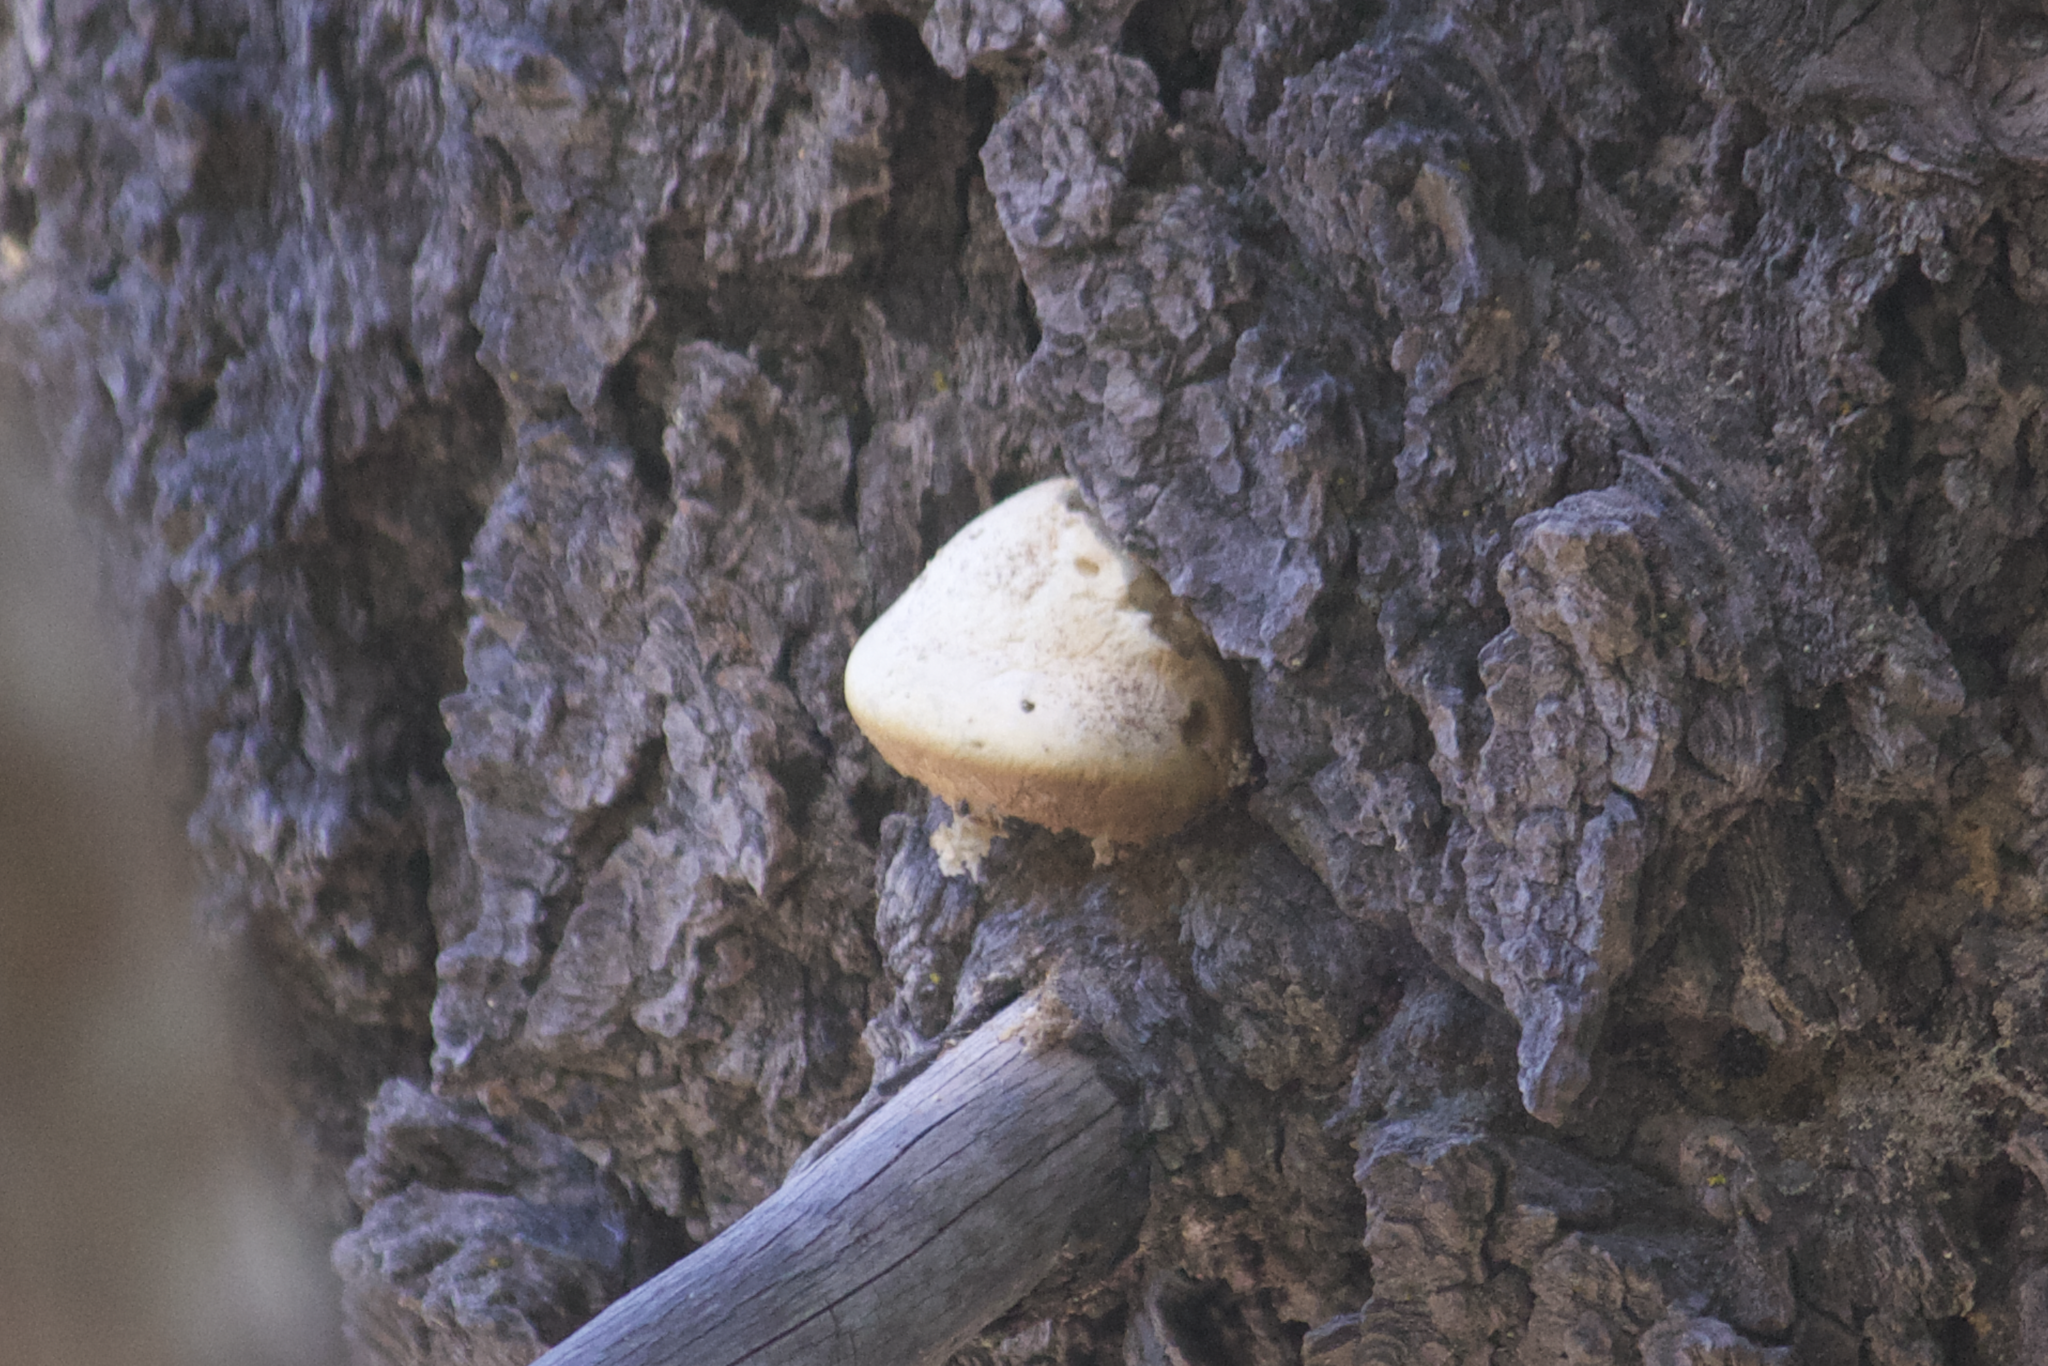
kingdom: Fungi
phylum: Basidiomycota
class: Agaricomycetes
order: Polyporales
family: Polyporaceae
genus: Cryptoporus
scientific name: Cryptoporus volvatus
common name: Veiled polypore
